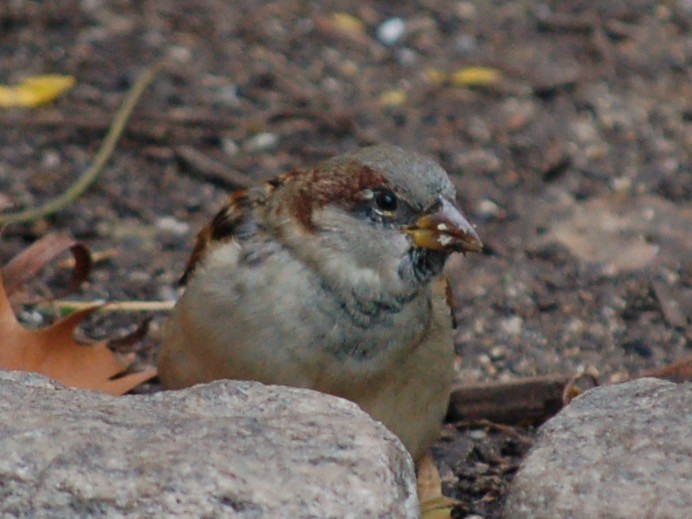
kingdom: Animalia
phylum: Chordata
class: Aves
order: Passeriformes
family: Passeridae
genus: Passer
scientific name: Passer domesticus
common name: House sparrow
